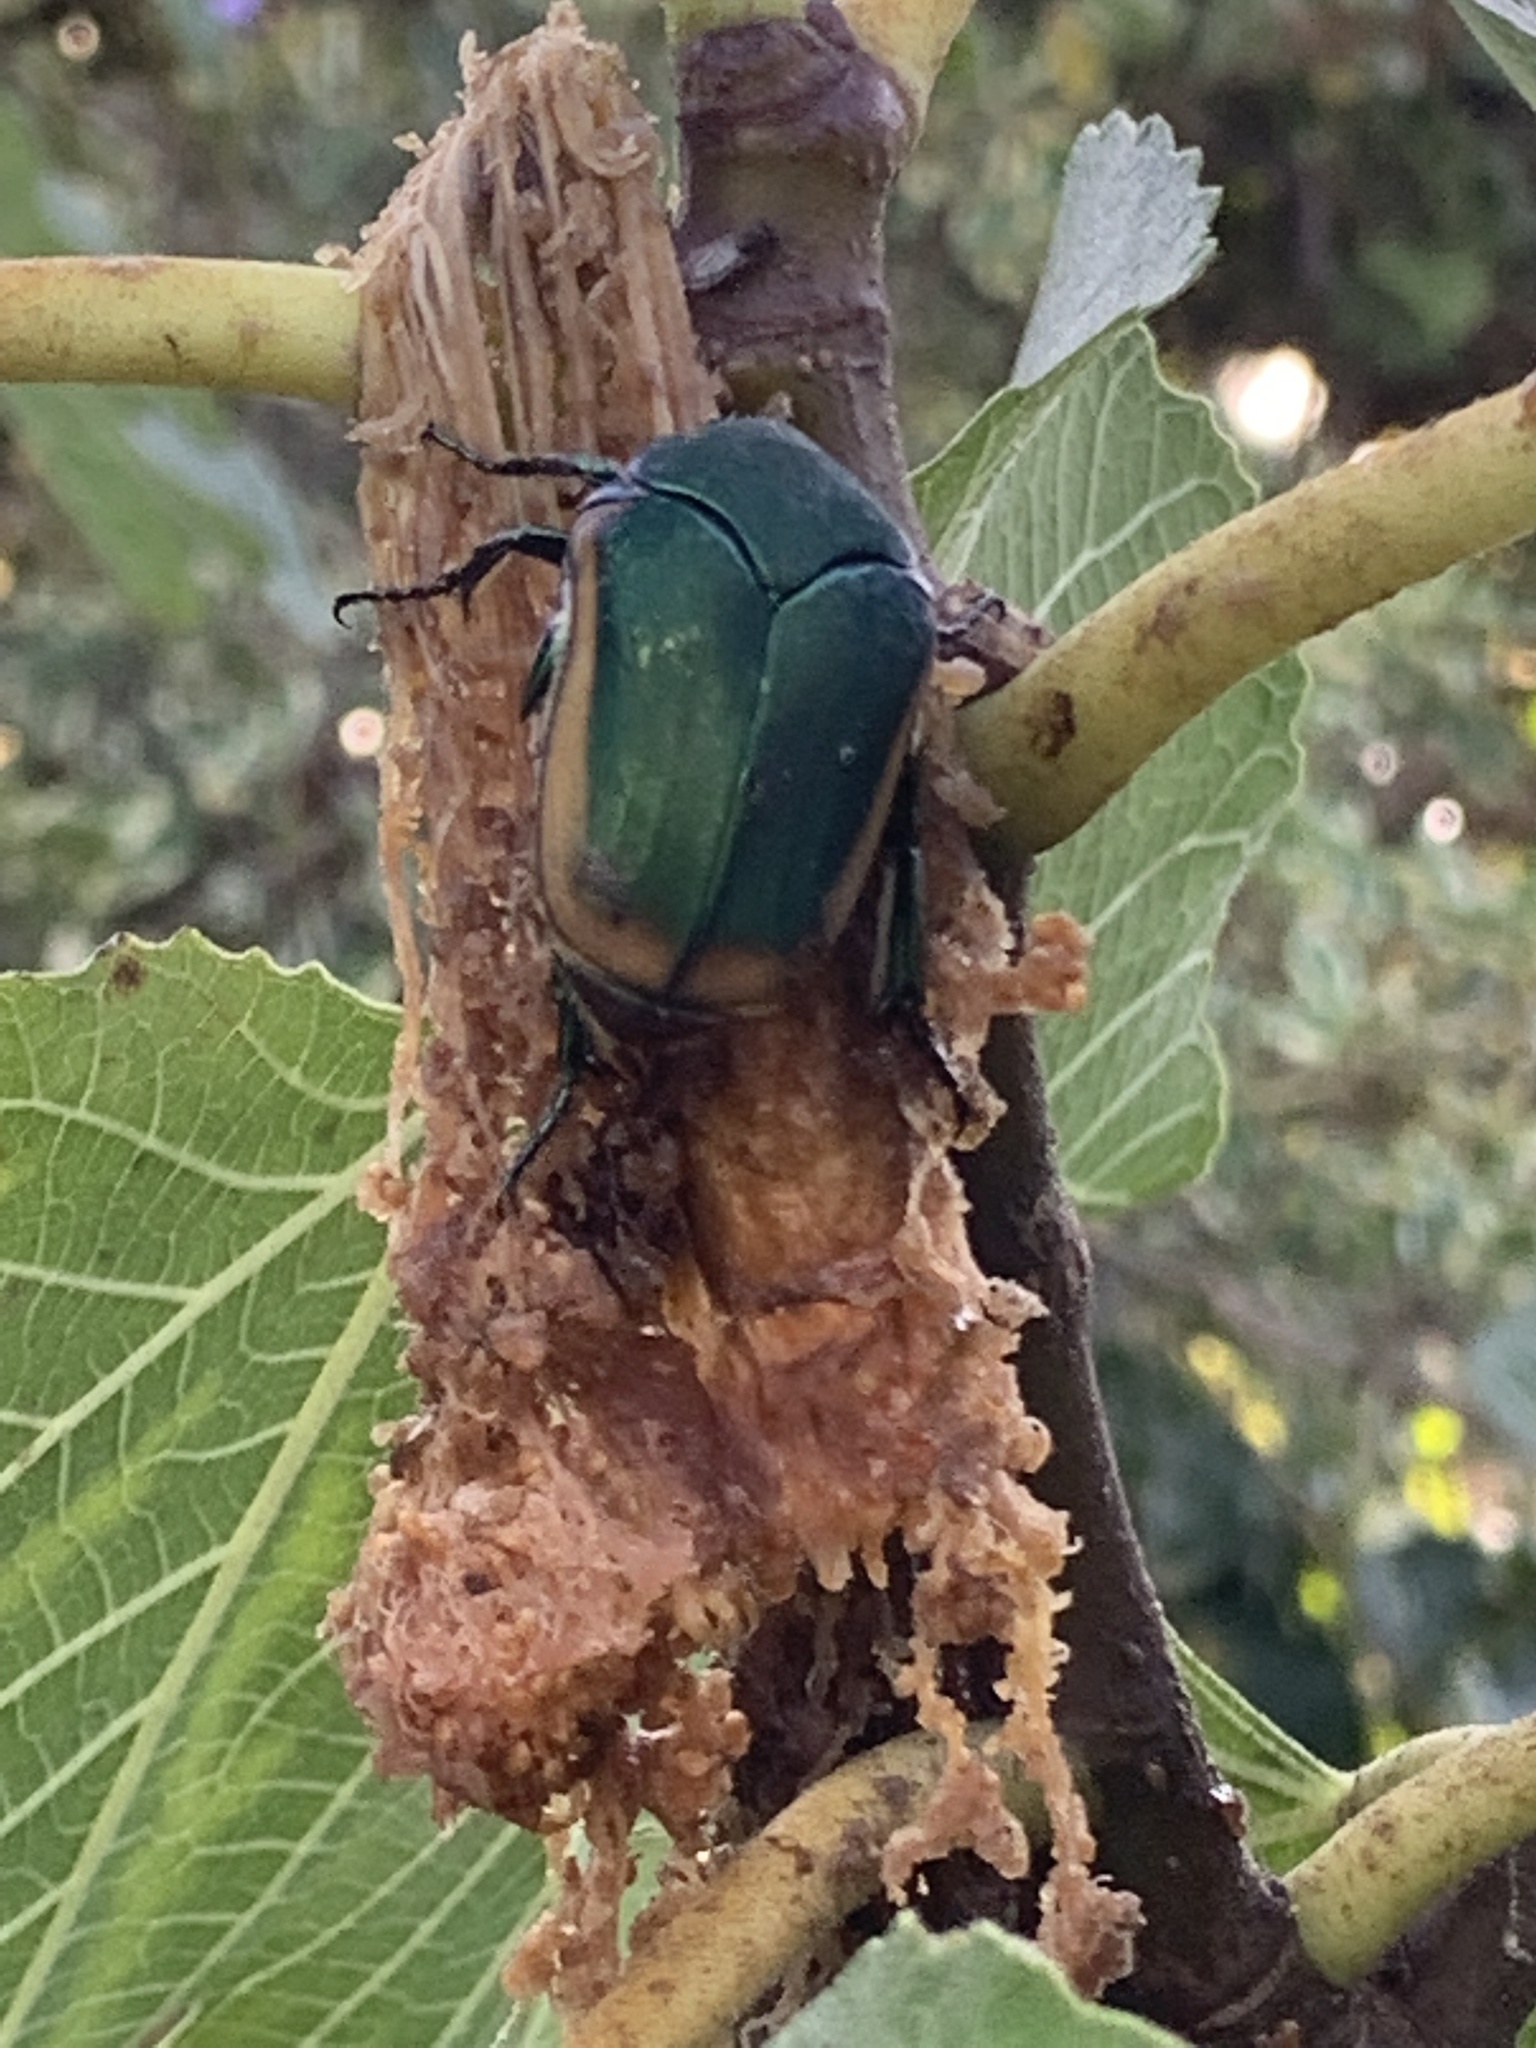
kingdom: Animalia
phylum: Arthropoda
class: Insecta
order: Coleoptera
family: Scarabaeidae
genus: Cotinis
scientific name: Cotinis mutabilis
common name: Figeater beetle
